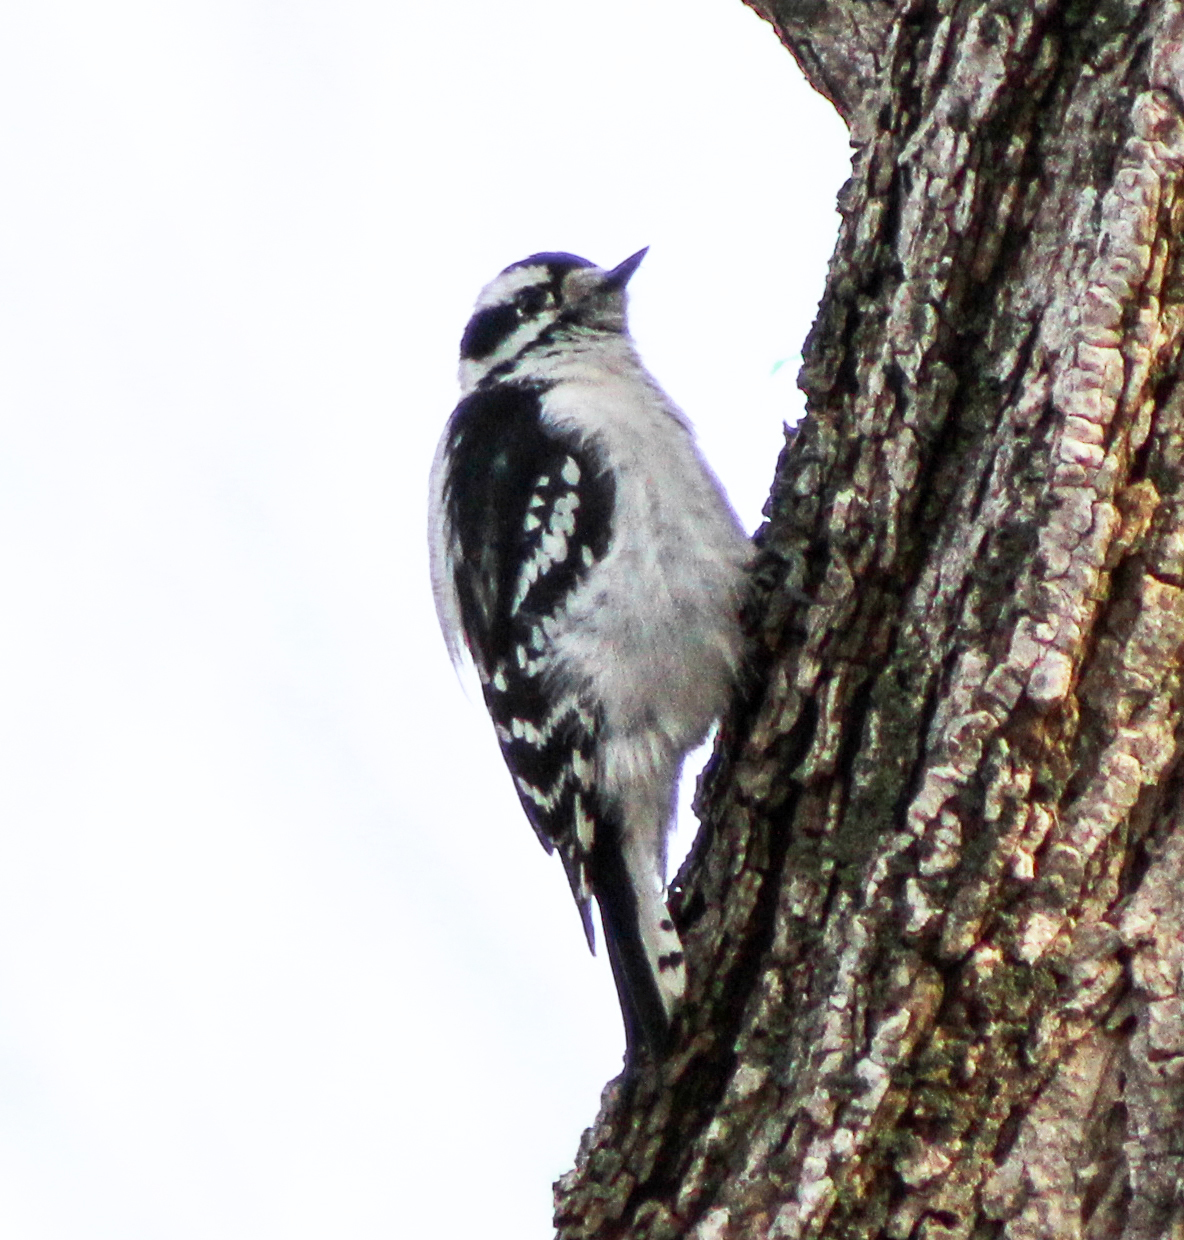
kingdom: Animalia
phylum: Chordata
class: Aves
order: Piciformes
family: Picidae
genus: Dryobates
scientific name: Dryobates pubescens
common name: Downy woodpecker
